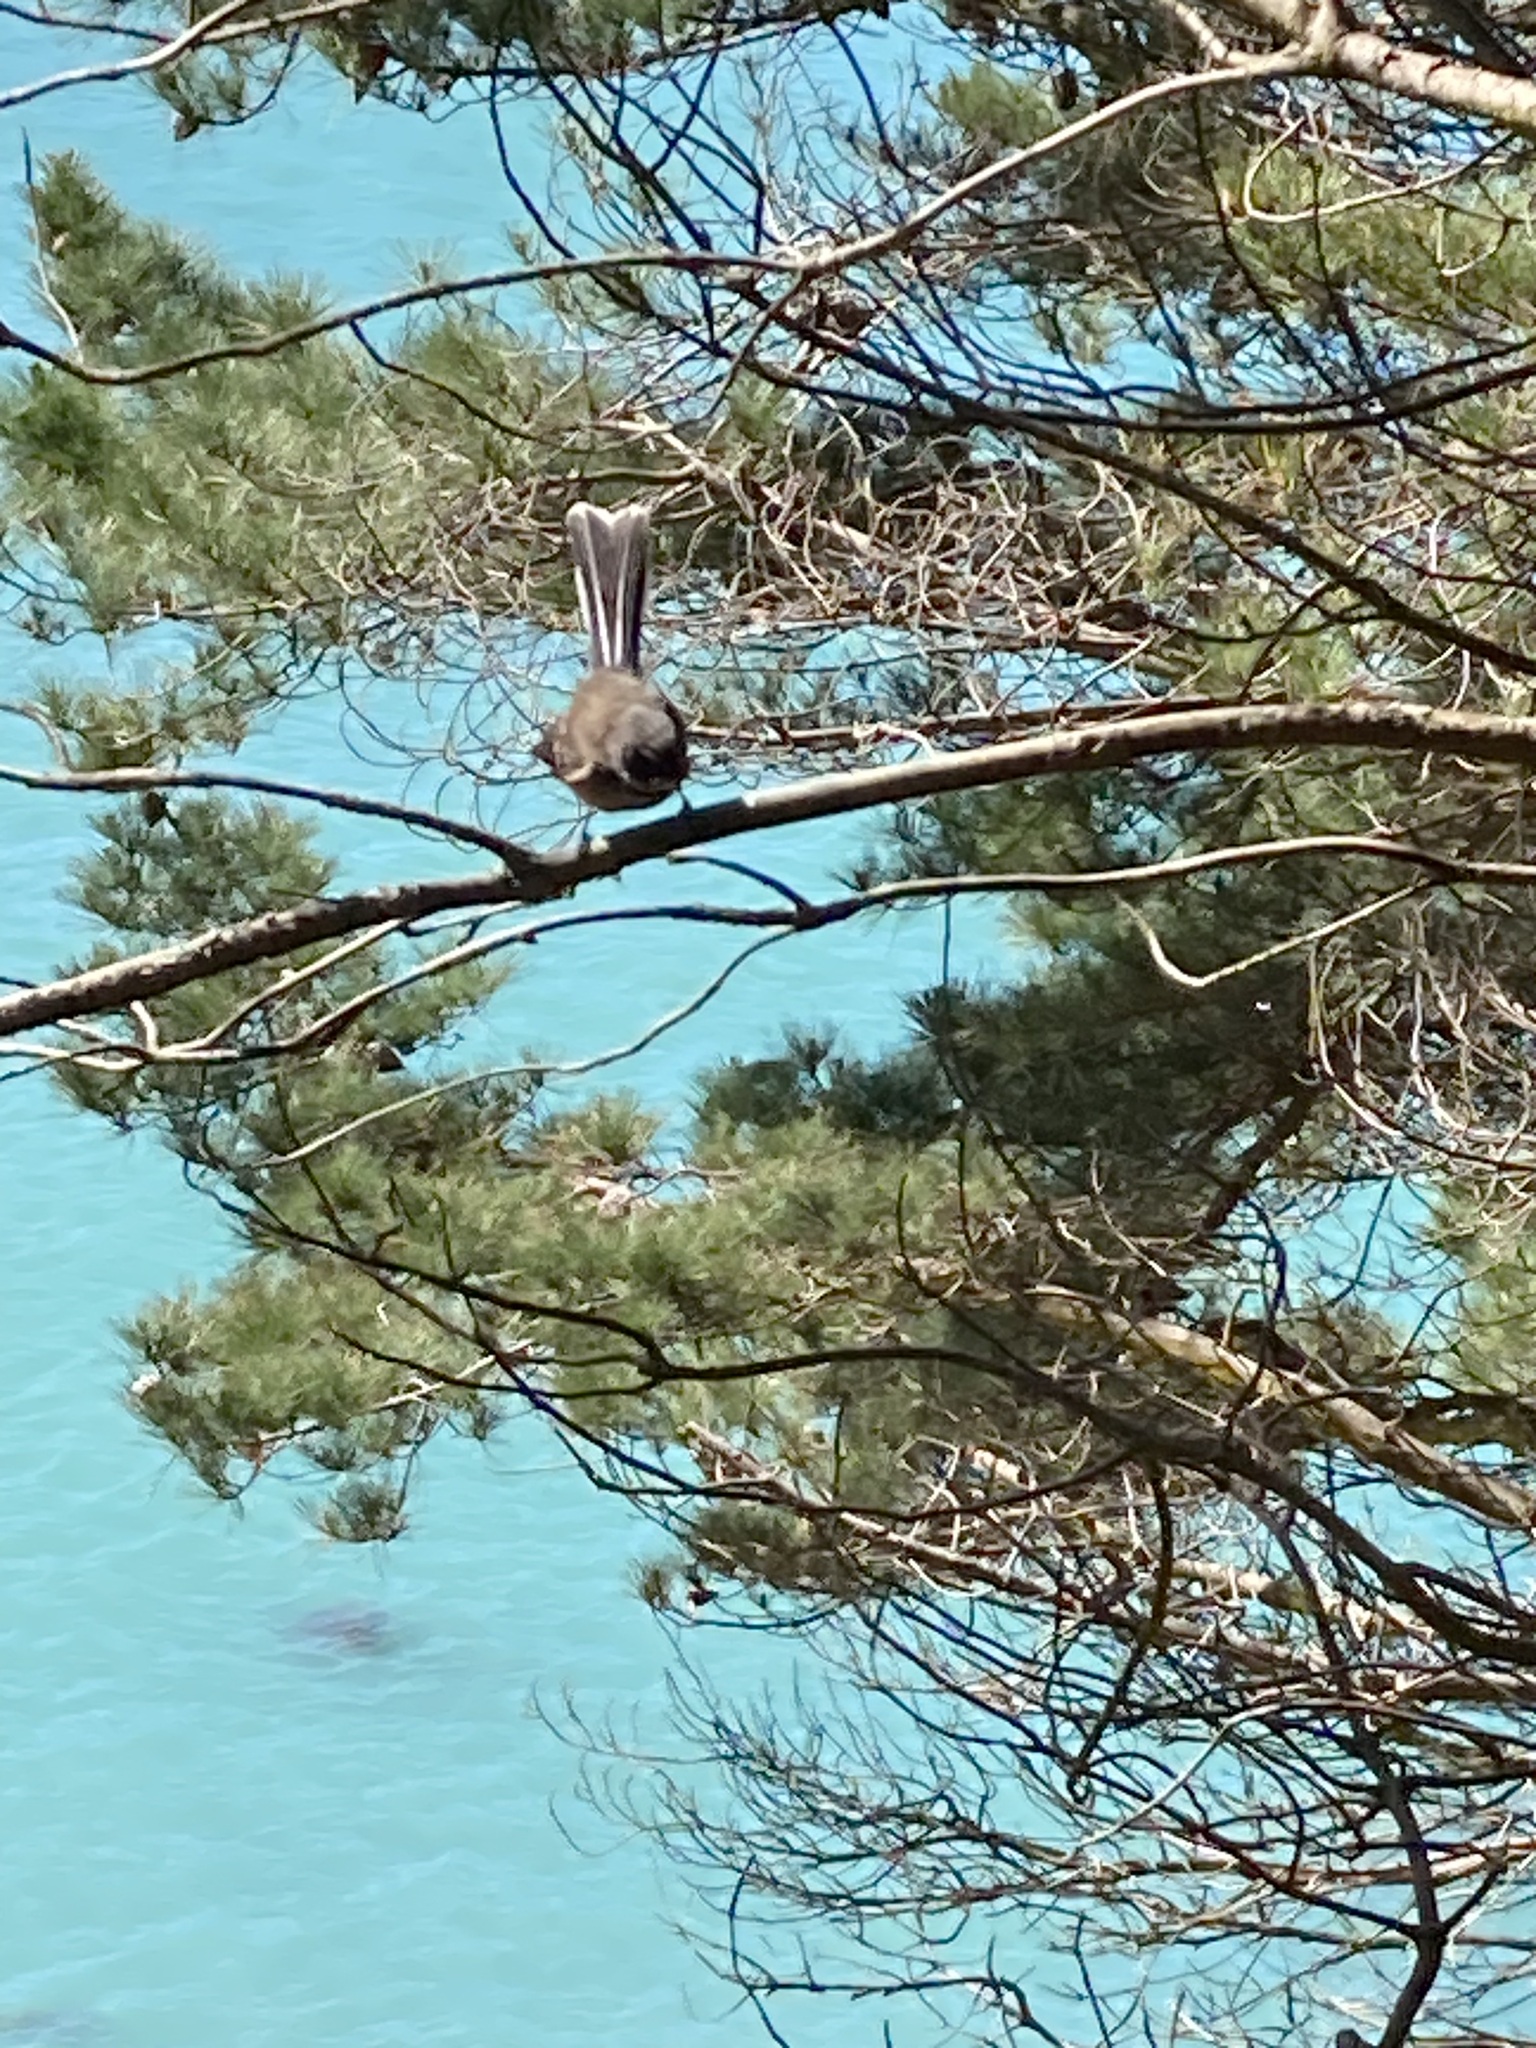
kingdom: Animalia
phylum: Chordata
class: Aves
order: Passeriformes
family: Rhipiduridae
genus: Rhipidura
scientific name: Rhipidura fuliginosa
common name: New zealand fantail
